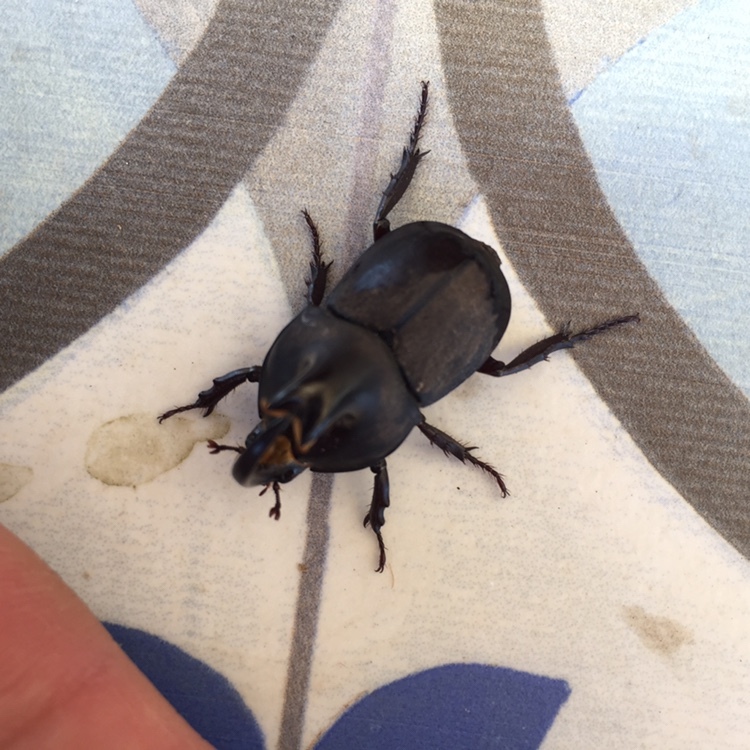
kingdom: Animalia
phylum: Arthropoda
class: Insecta
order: Coleoptera
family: Scarabaeidae
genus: Diloboderus
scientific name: Diloboderus abderus
